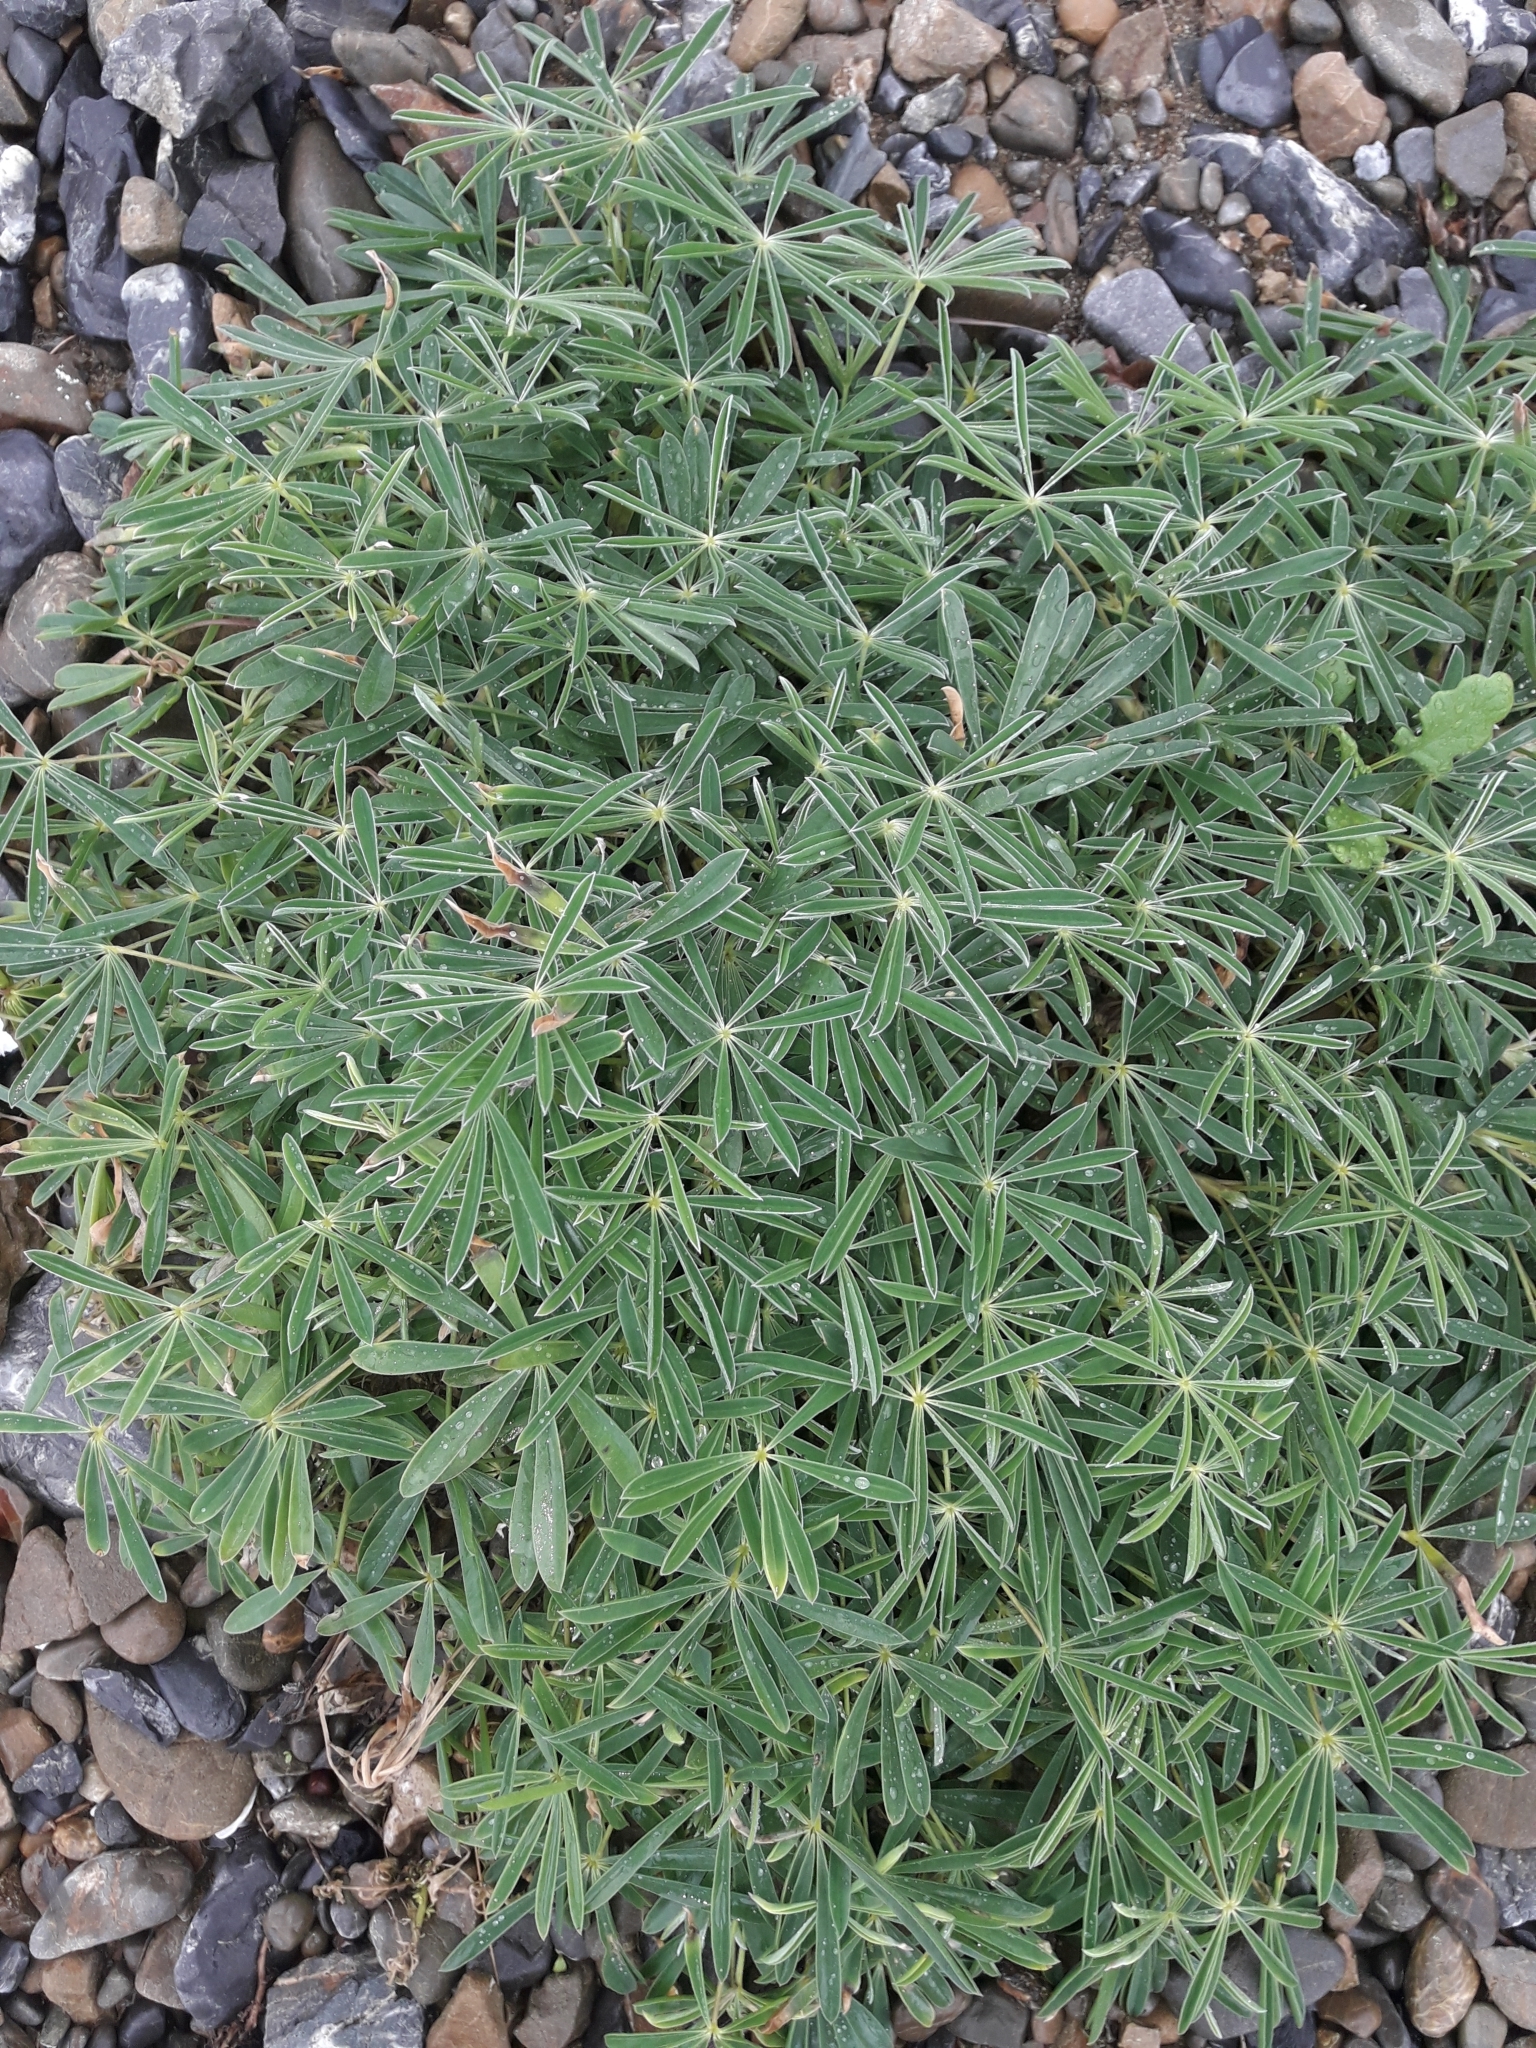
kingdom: Plantae
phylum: Tracheophyta
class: Magnoliopsida
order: Fabales
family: Fabaceae
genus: Lupinus
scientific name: Lupinus arboreus
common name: Yellow bush lupine
